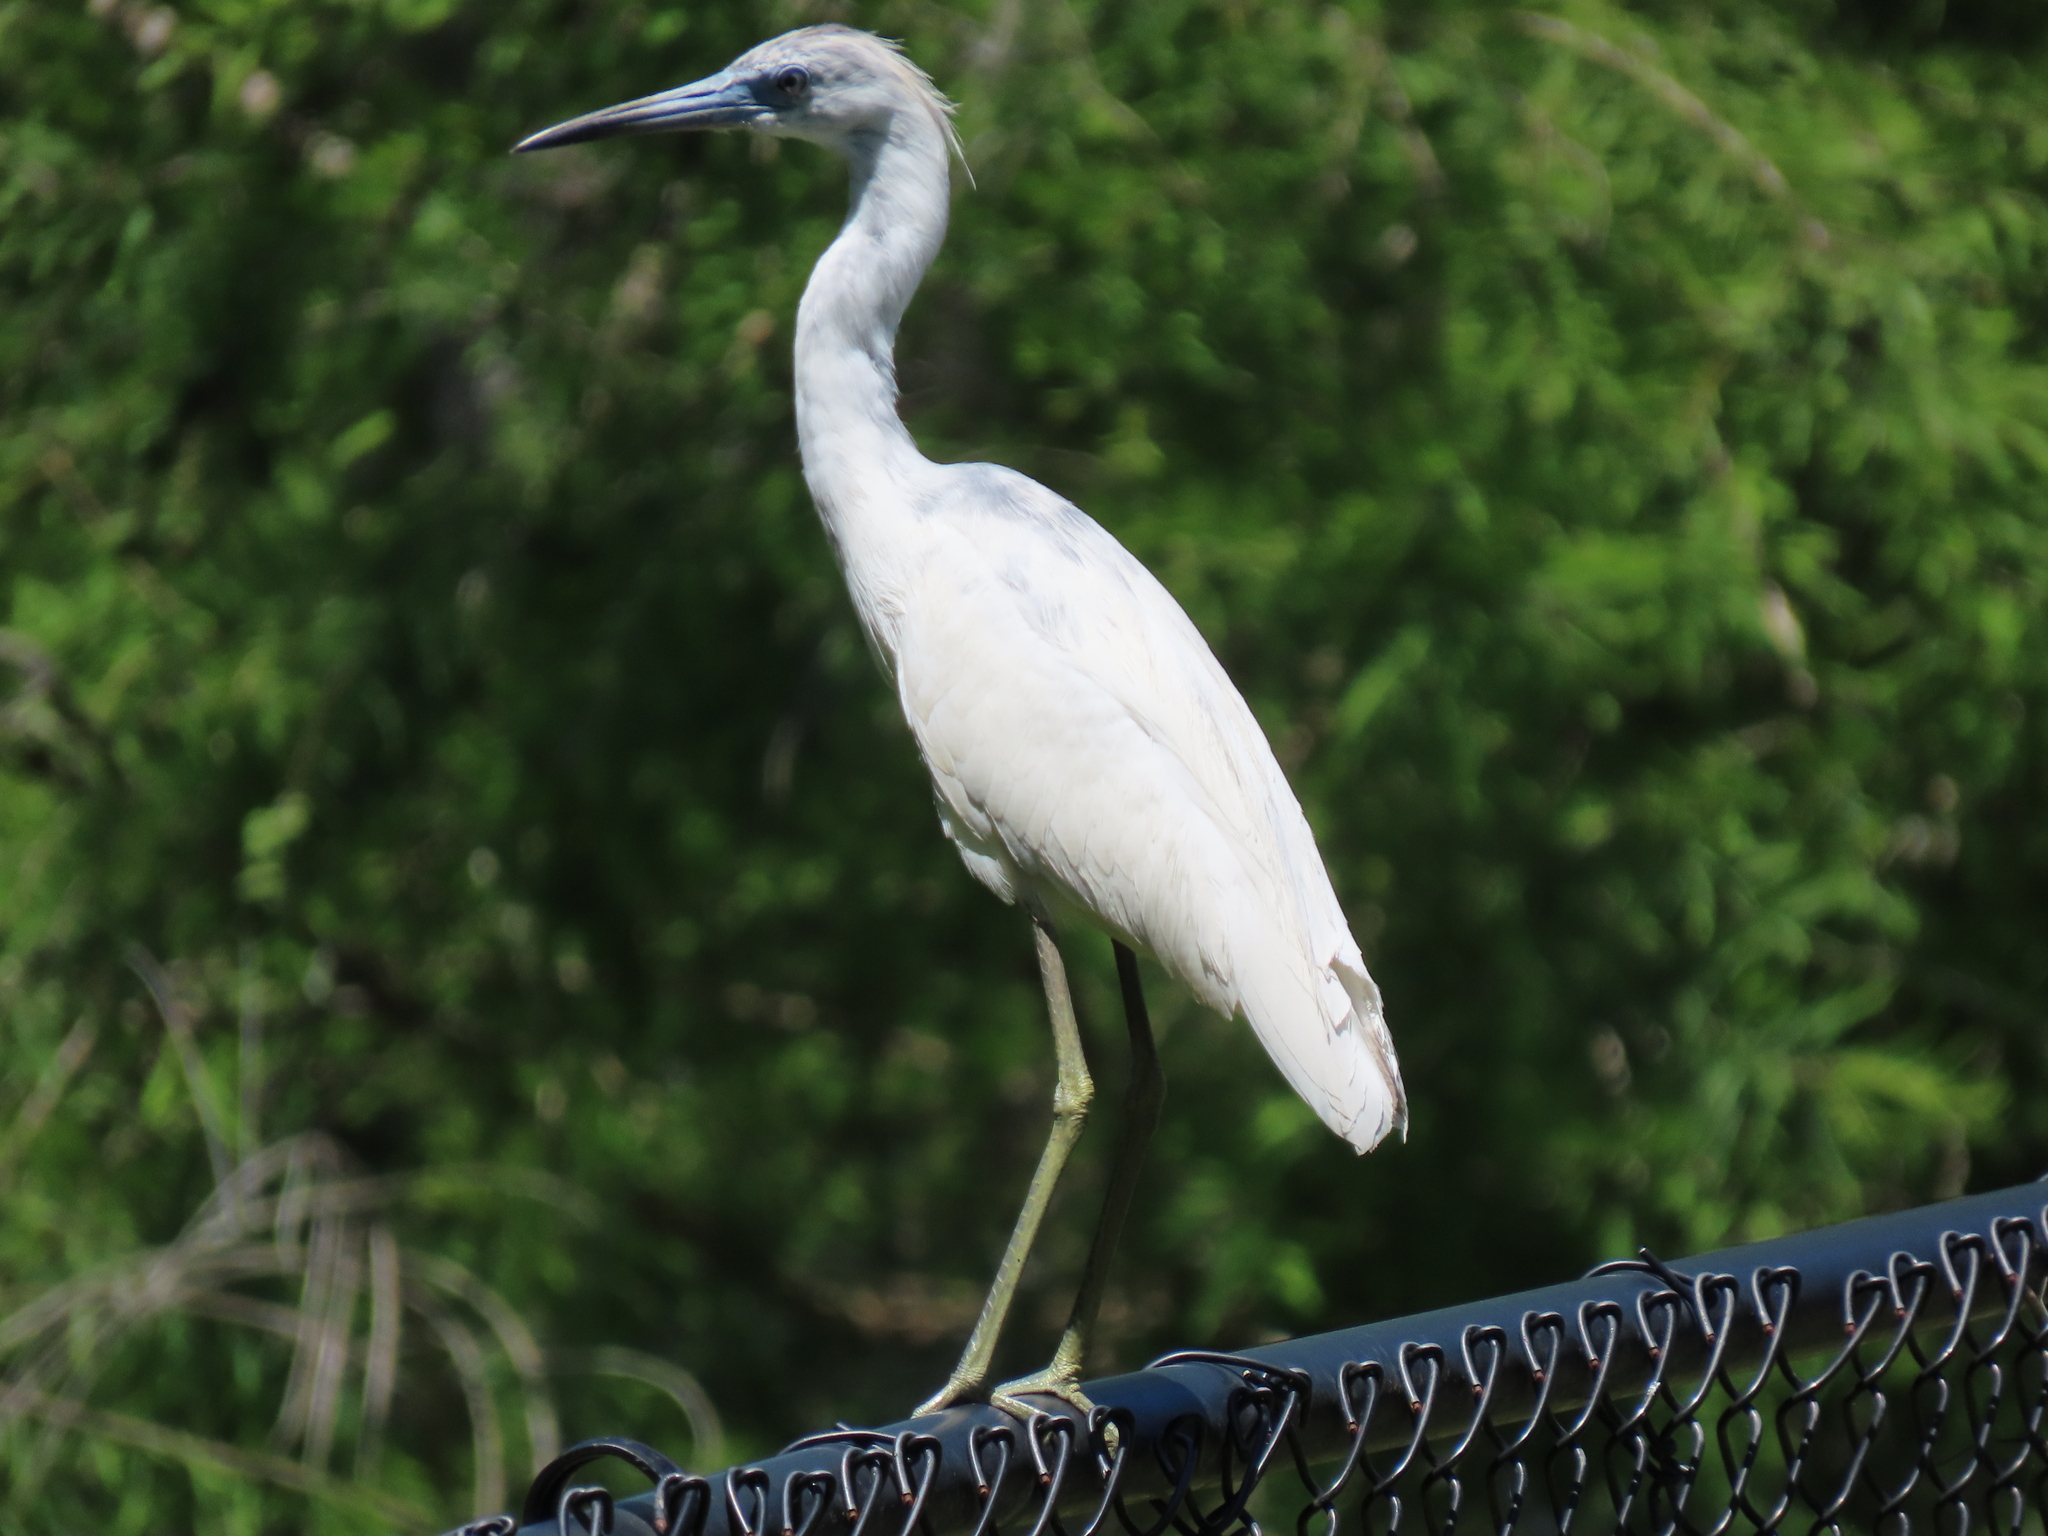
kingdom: Animalia
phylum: Chordata
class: Aves
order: Pelecaniformes
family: Ardeidae
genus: Egretta
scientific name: Egretta caerulea
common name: Little blue heron
